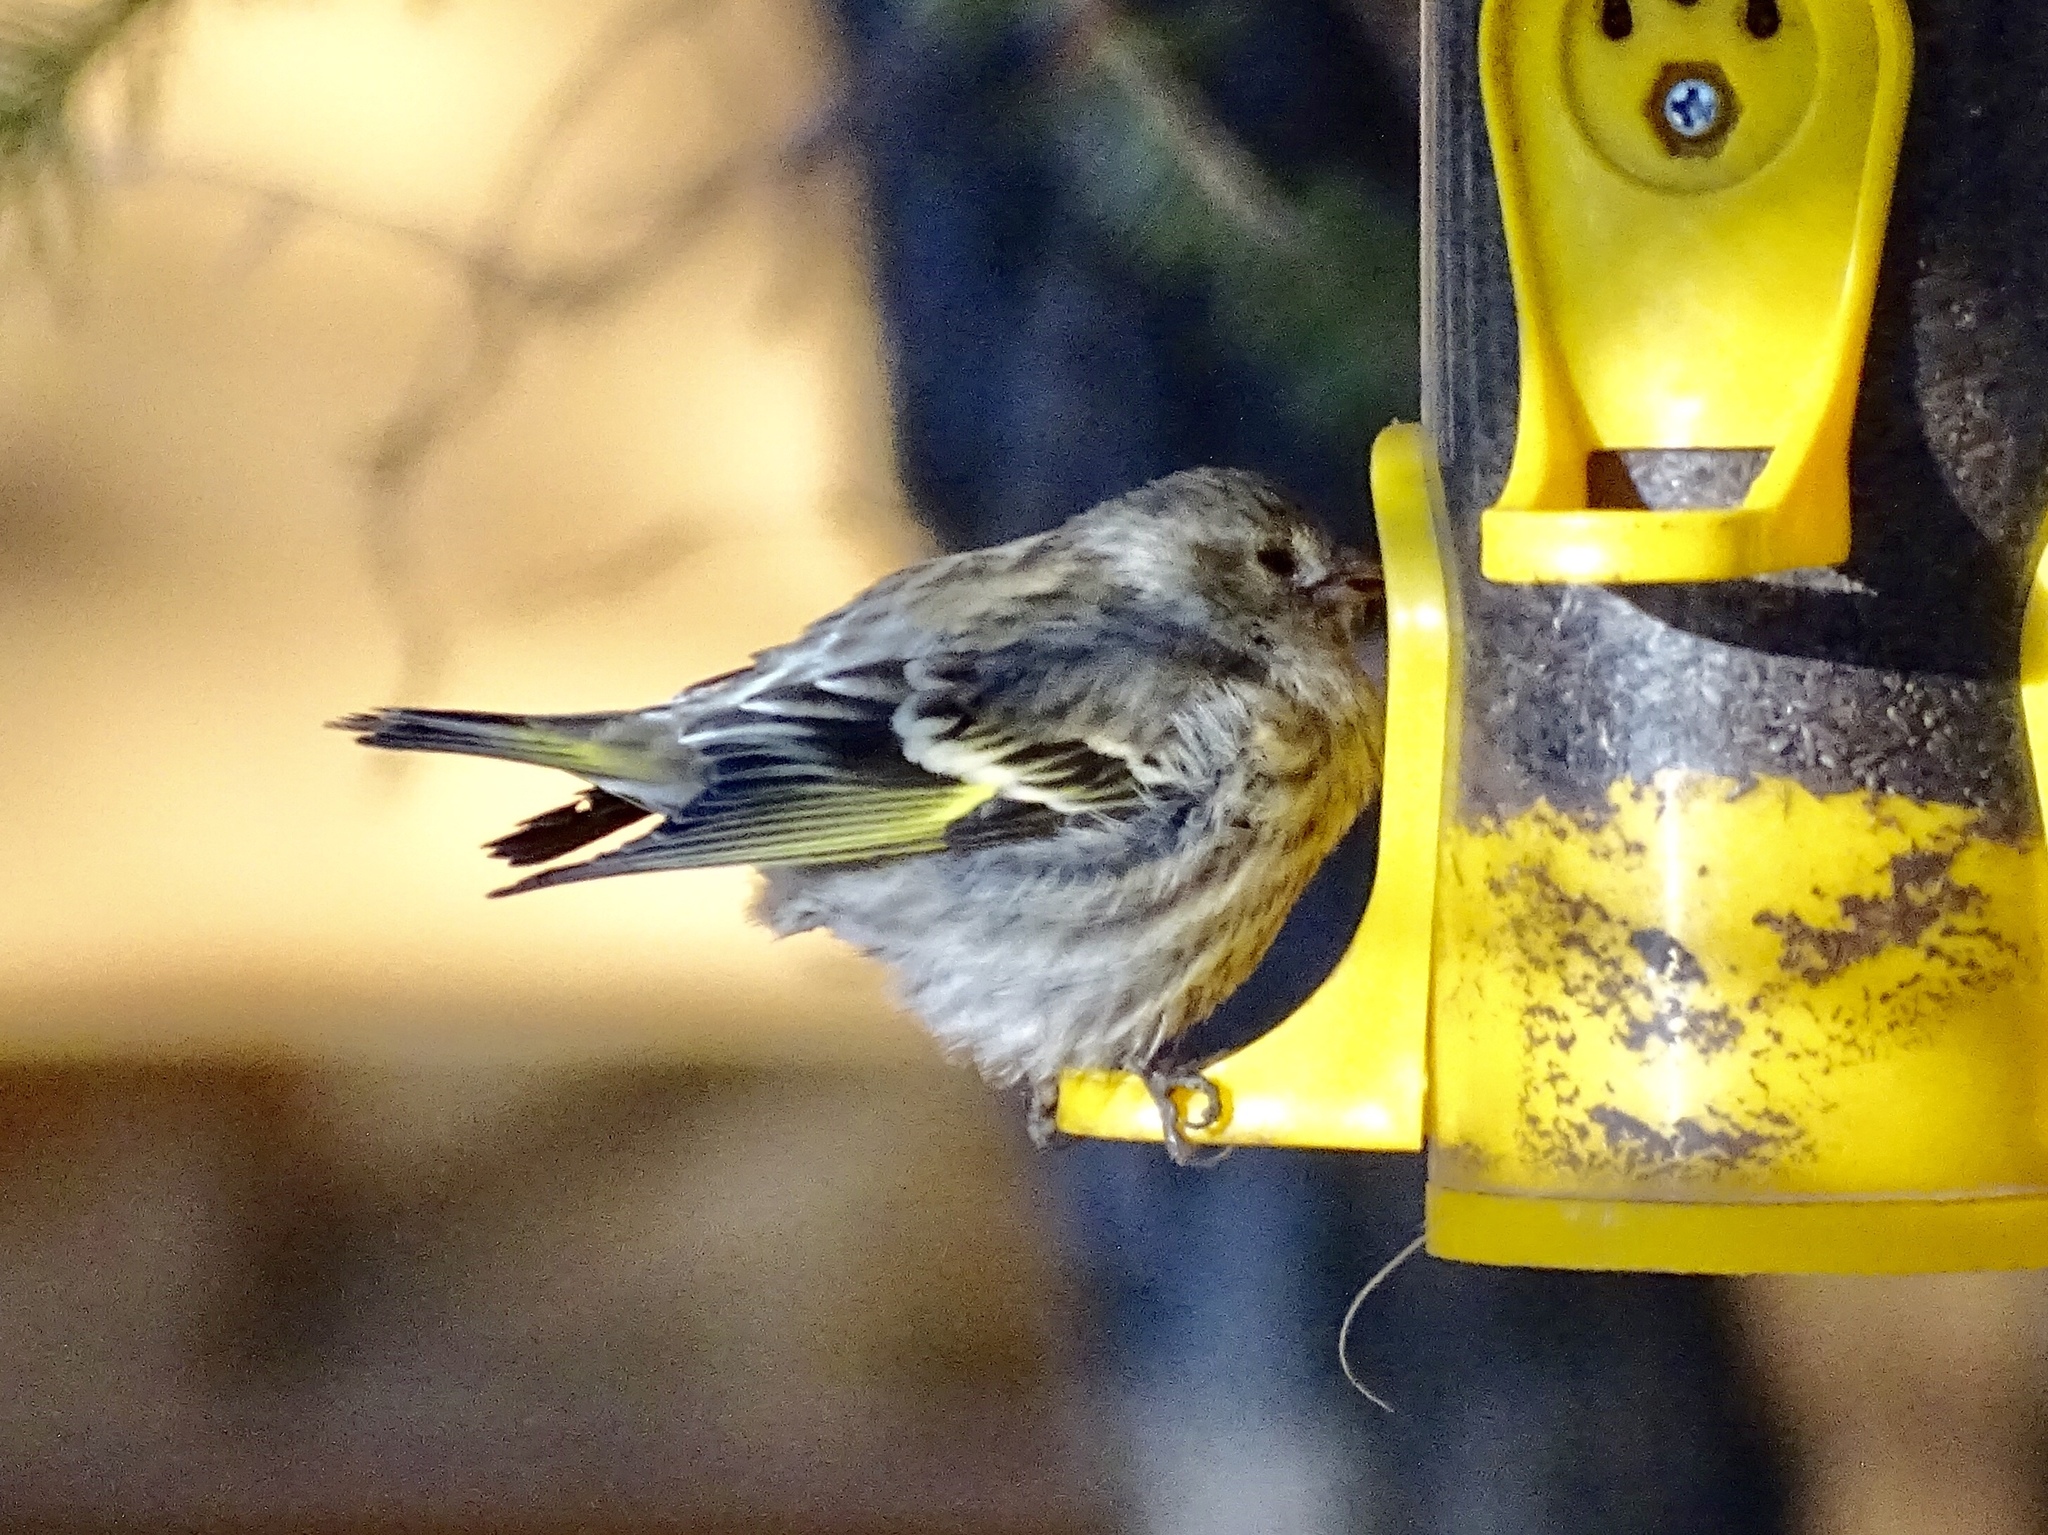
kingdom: Animalia
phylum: Chordata
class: Aves
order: Passeriformes
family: Fringillidae
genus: Spinus
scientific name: Spinus pinus
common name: Pine siskin
